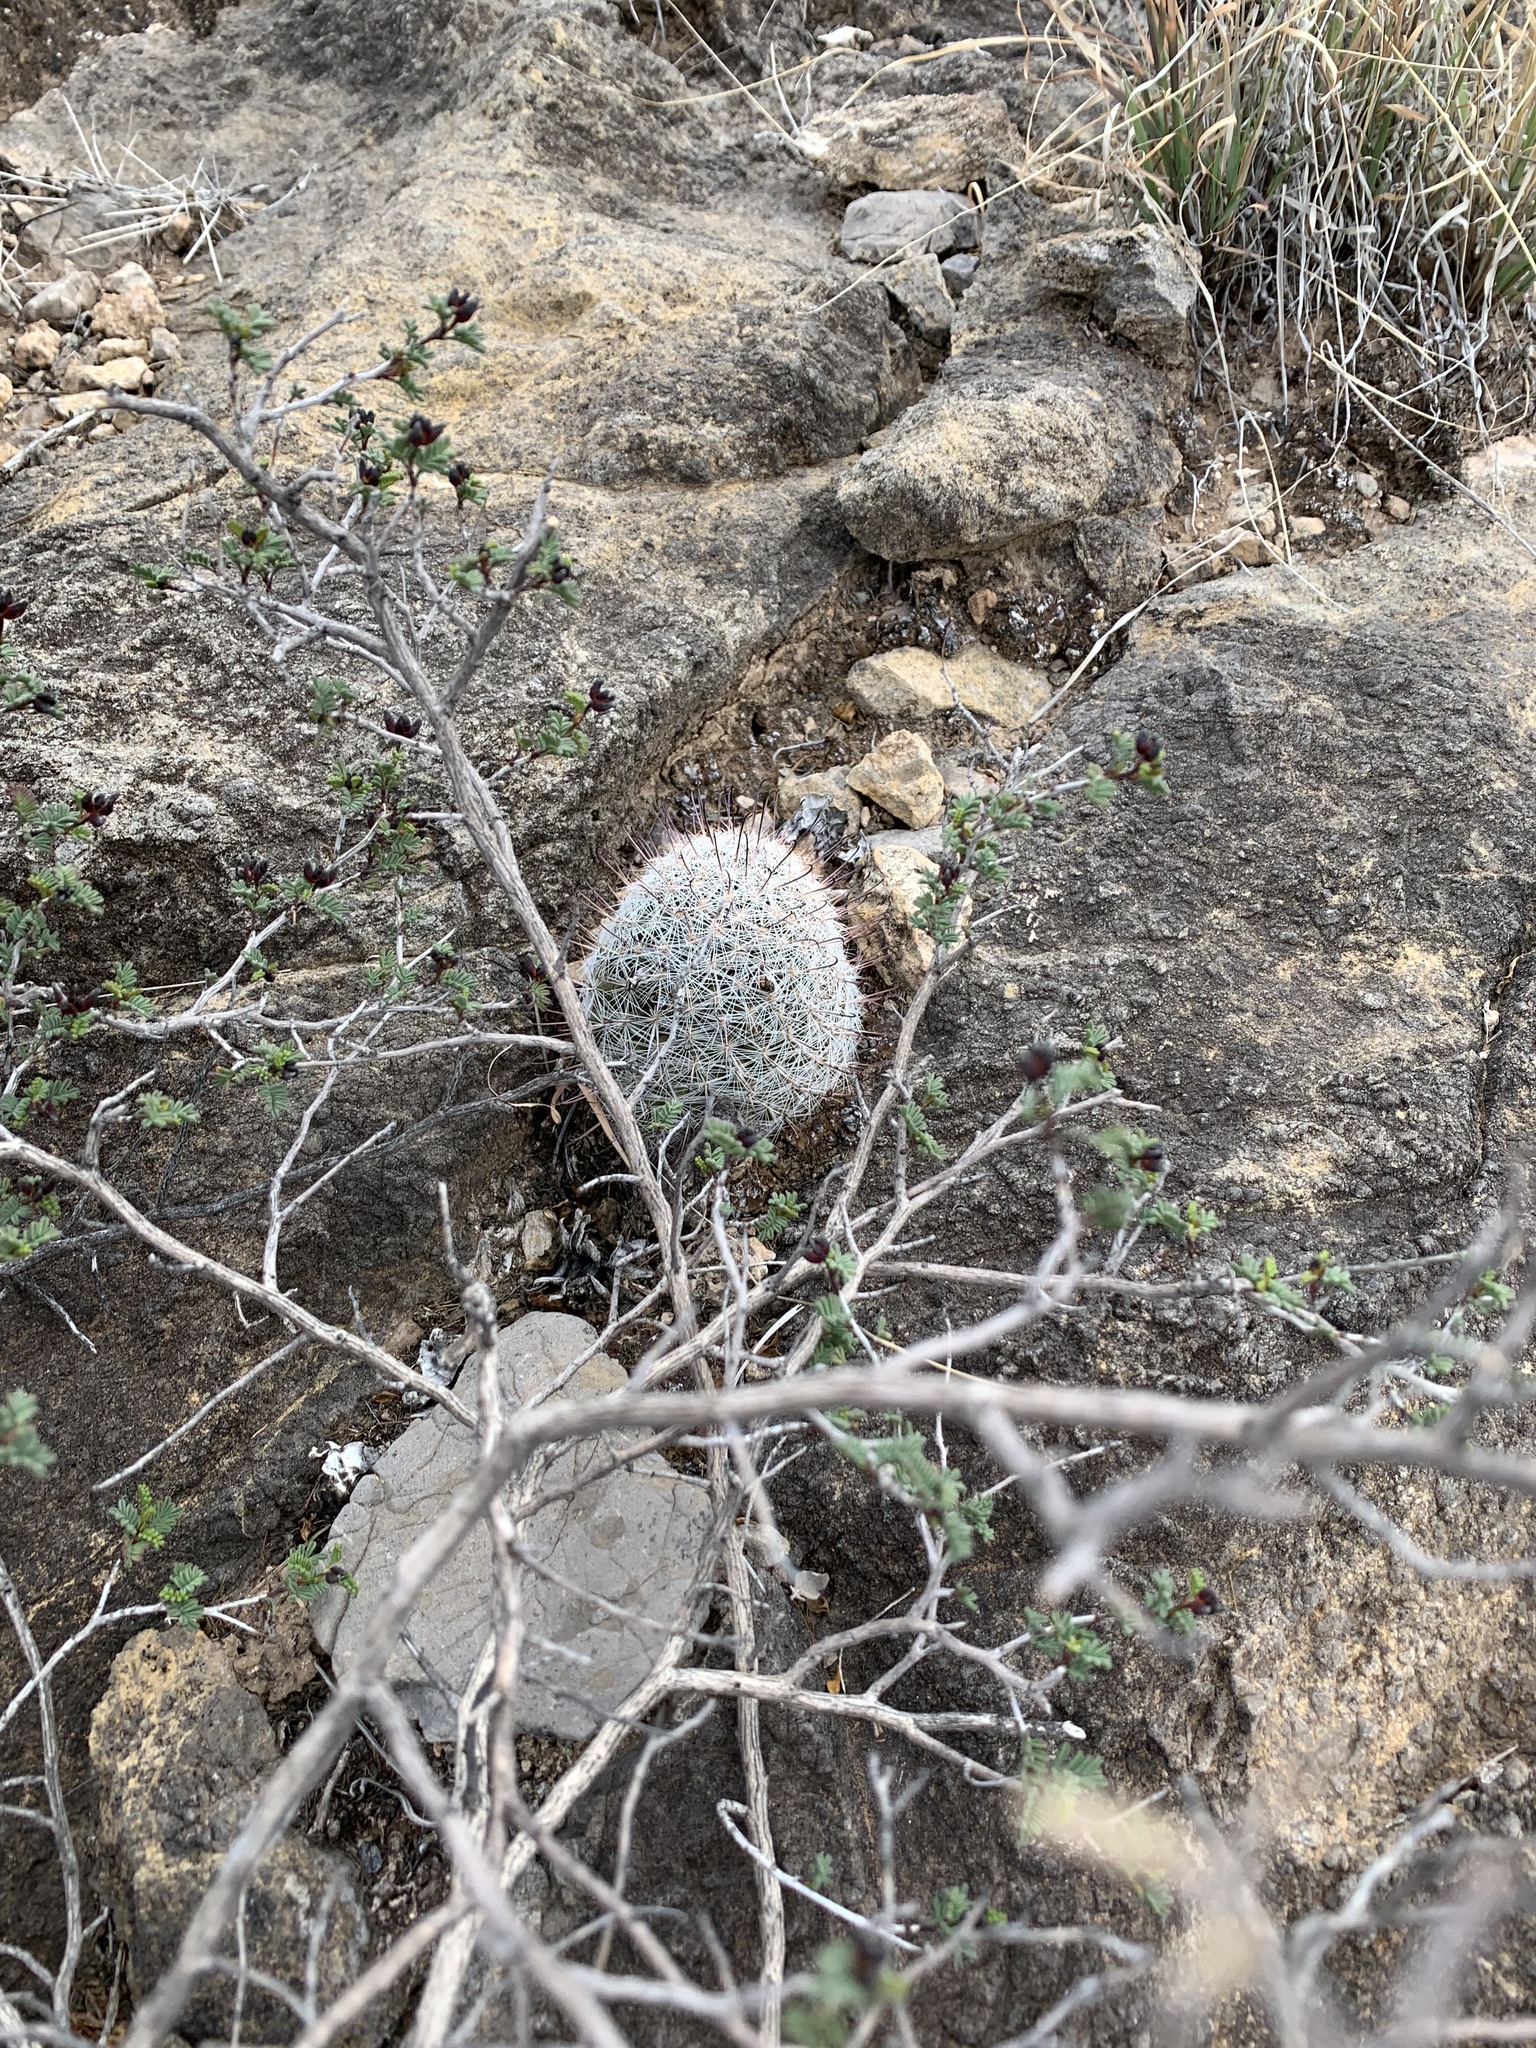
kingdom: Plantae
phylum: Tracheophyta
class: Magnoliopsida
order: Caryophyllales
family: Cactaceae
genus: Cochemiea
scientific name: Cochemiea grahamii
